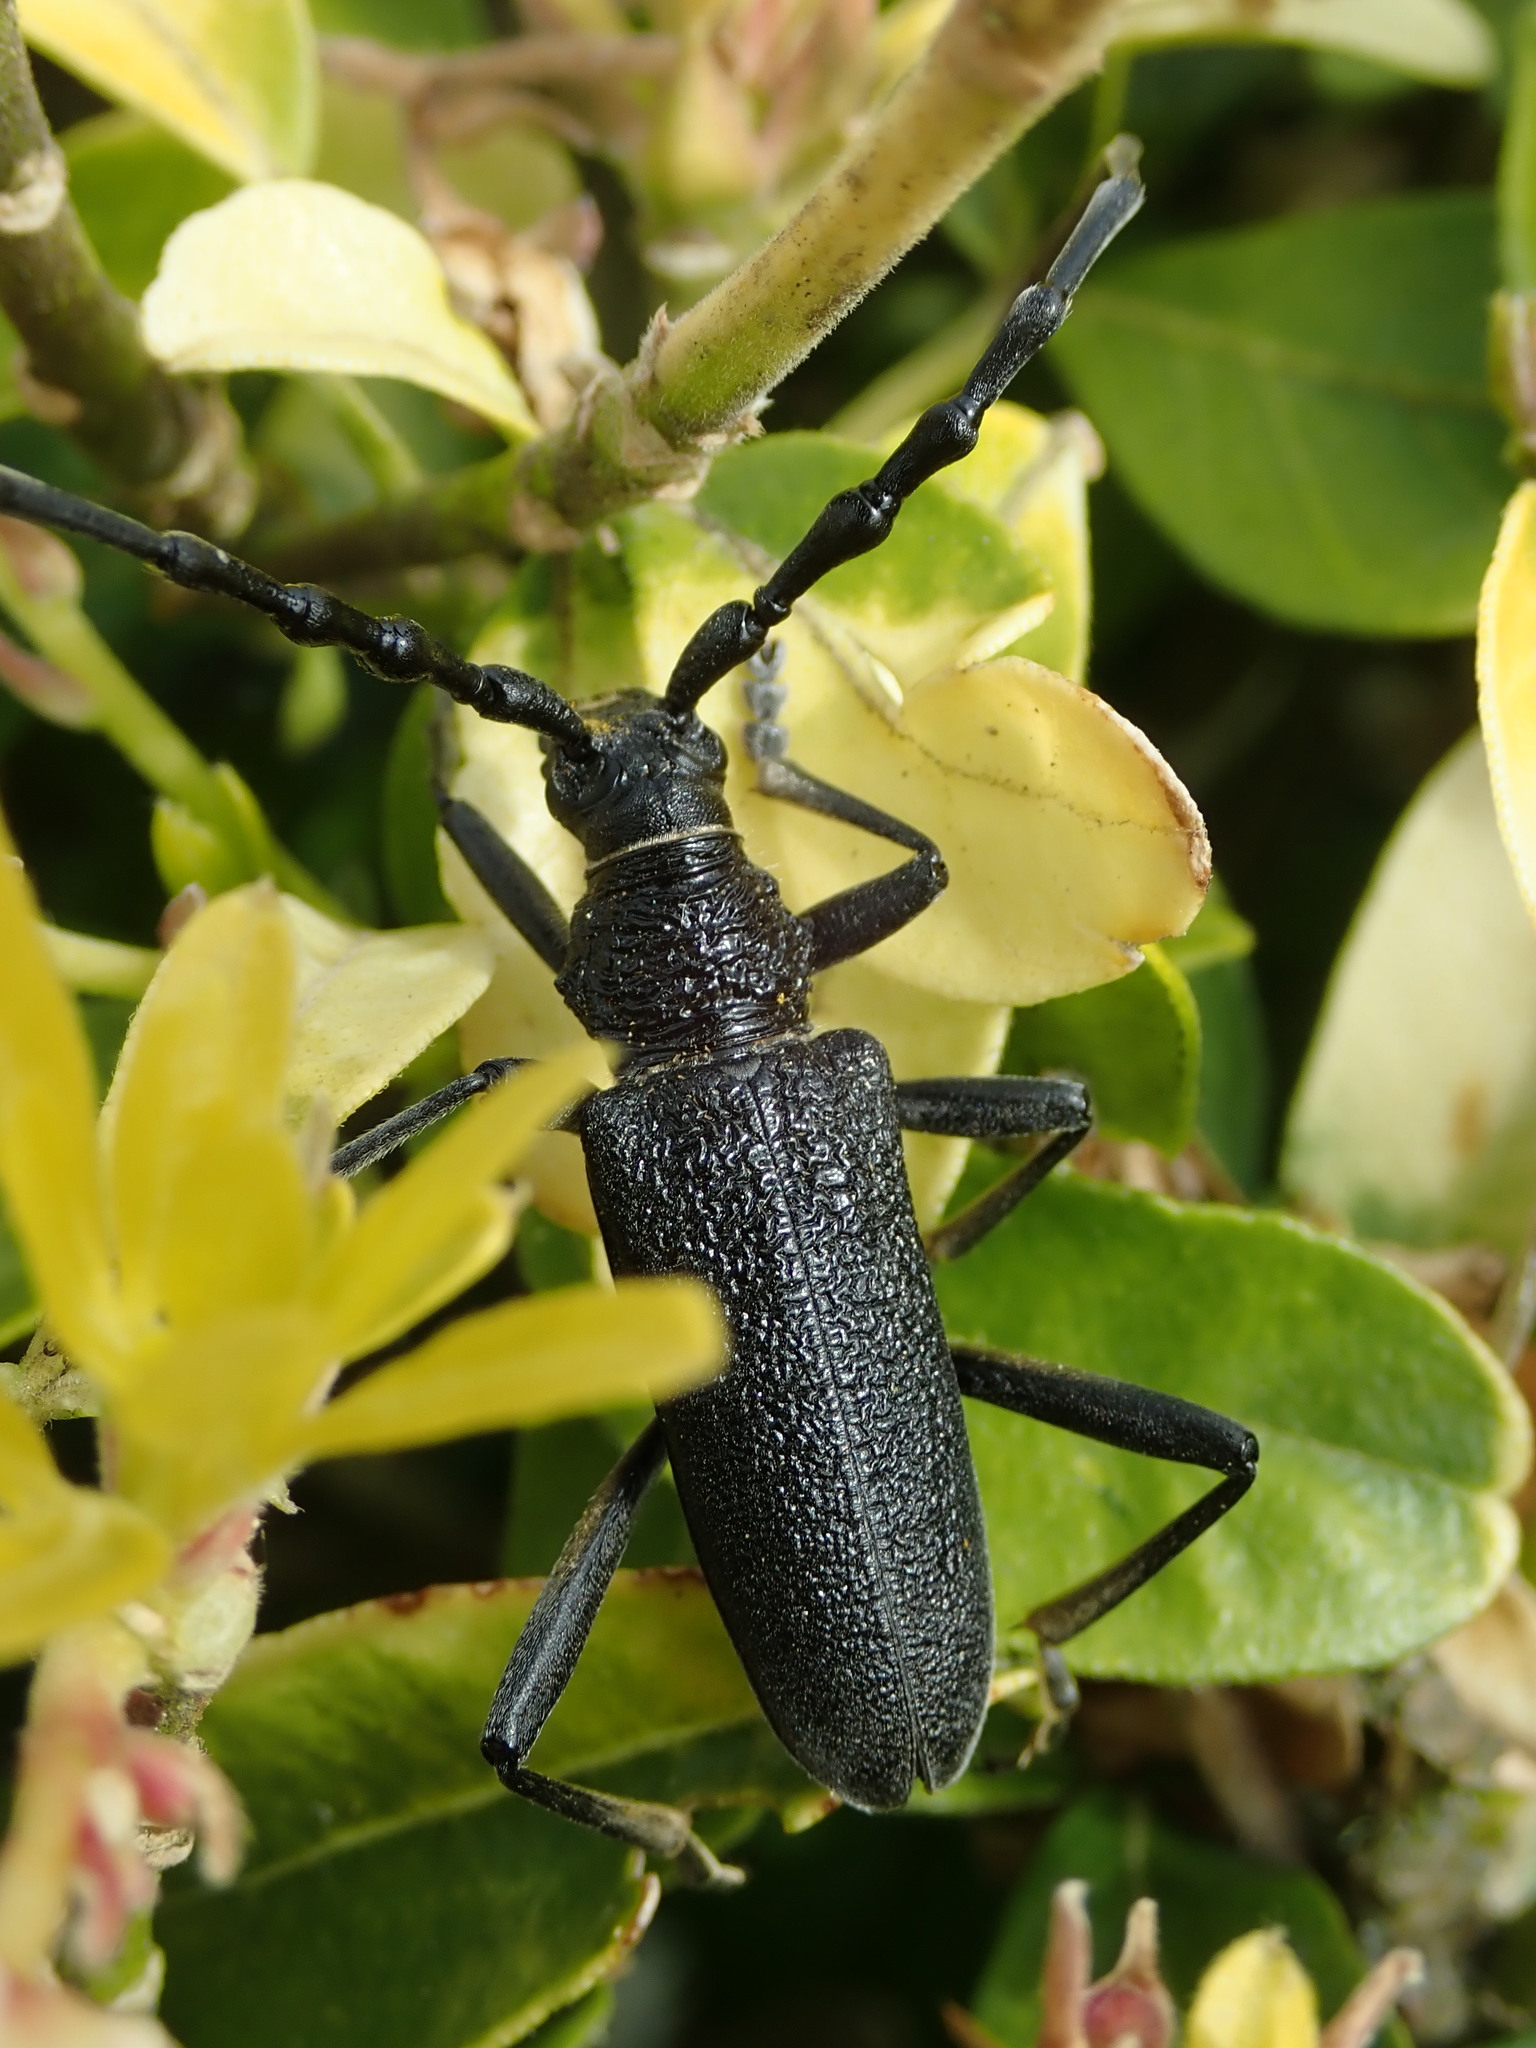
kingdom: Animalia
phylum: Arthropoda
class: Insecta
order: Coleoptera
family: Cerambycidae
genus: Cerambyx
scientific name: Cerambyx scopolii
